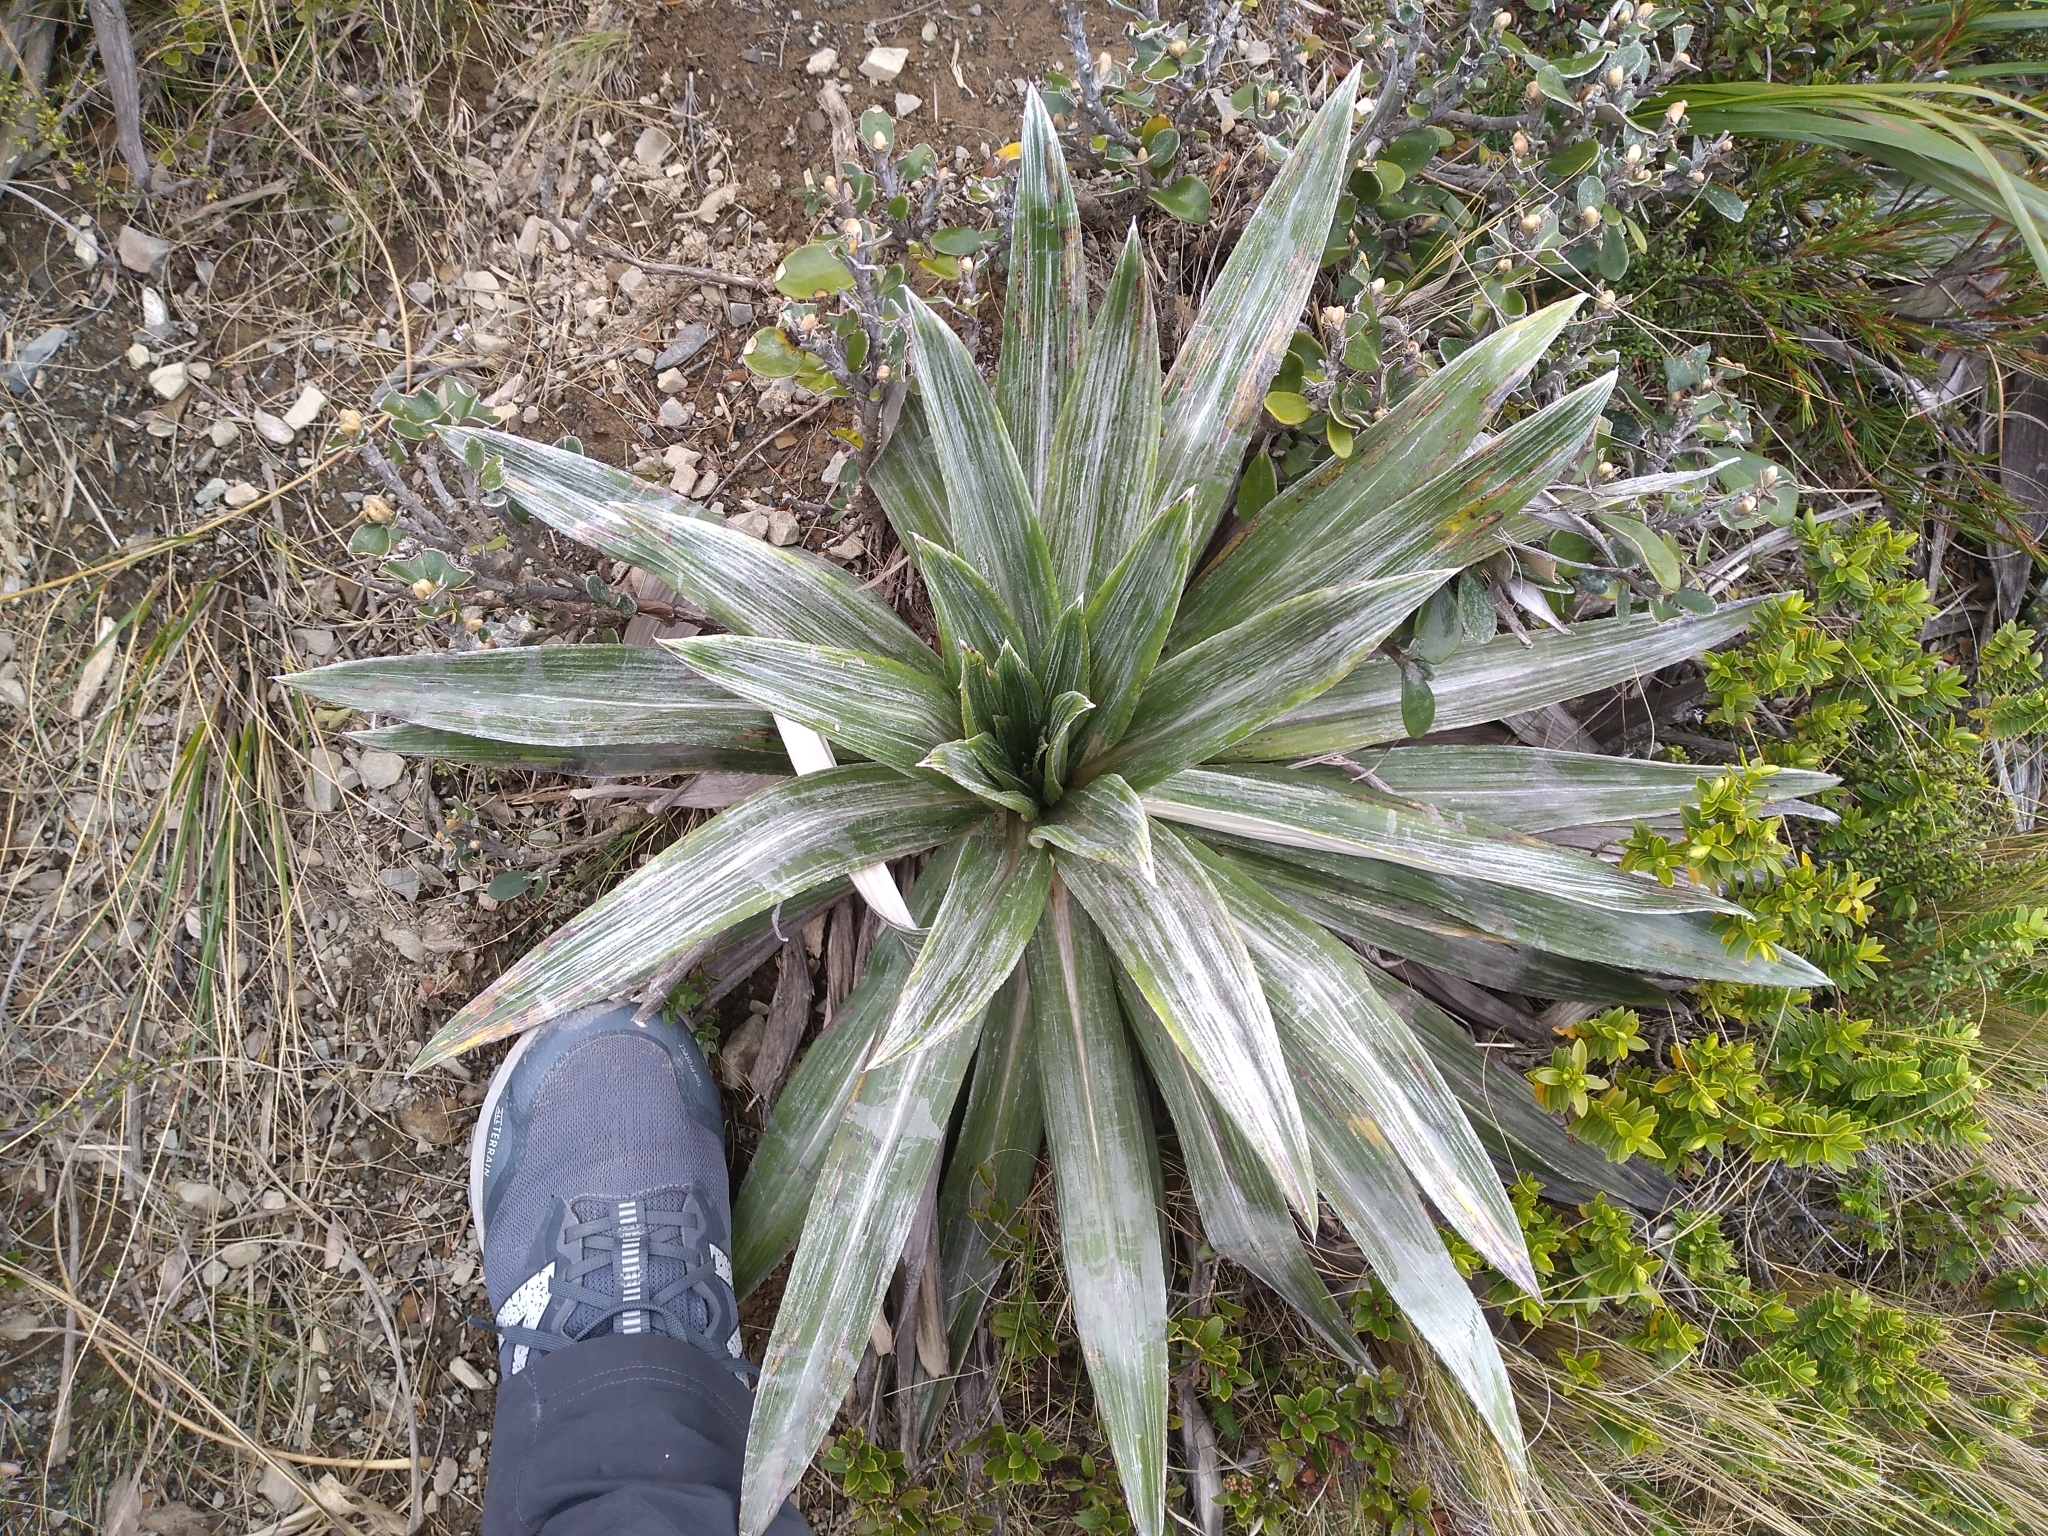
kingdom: Plantae
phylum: Tracheophyta
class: Magnoliopsida
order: Asterales
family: Asteraceae
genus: Celmisia
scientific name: Celmisia semicordata
